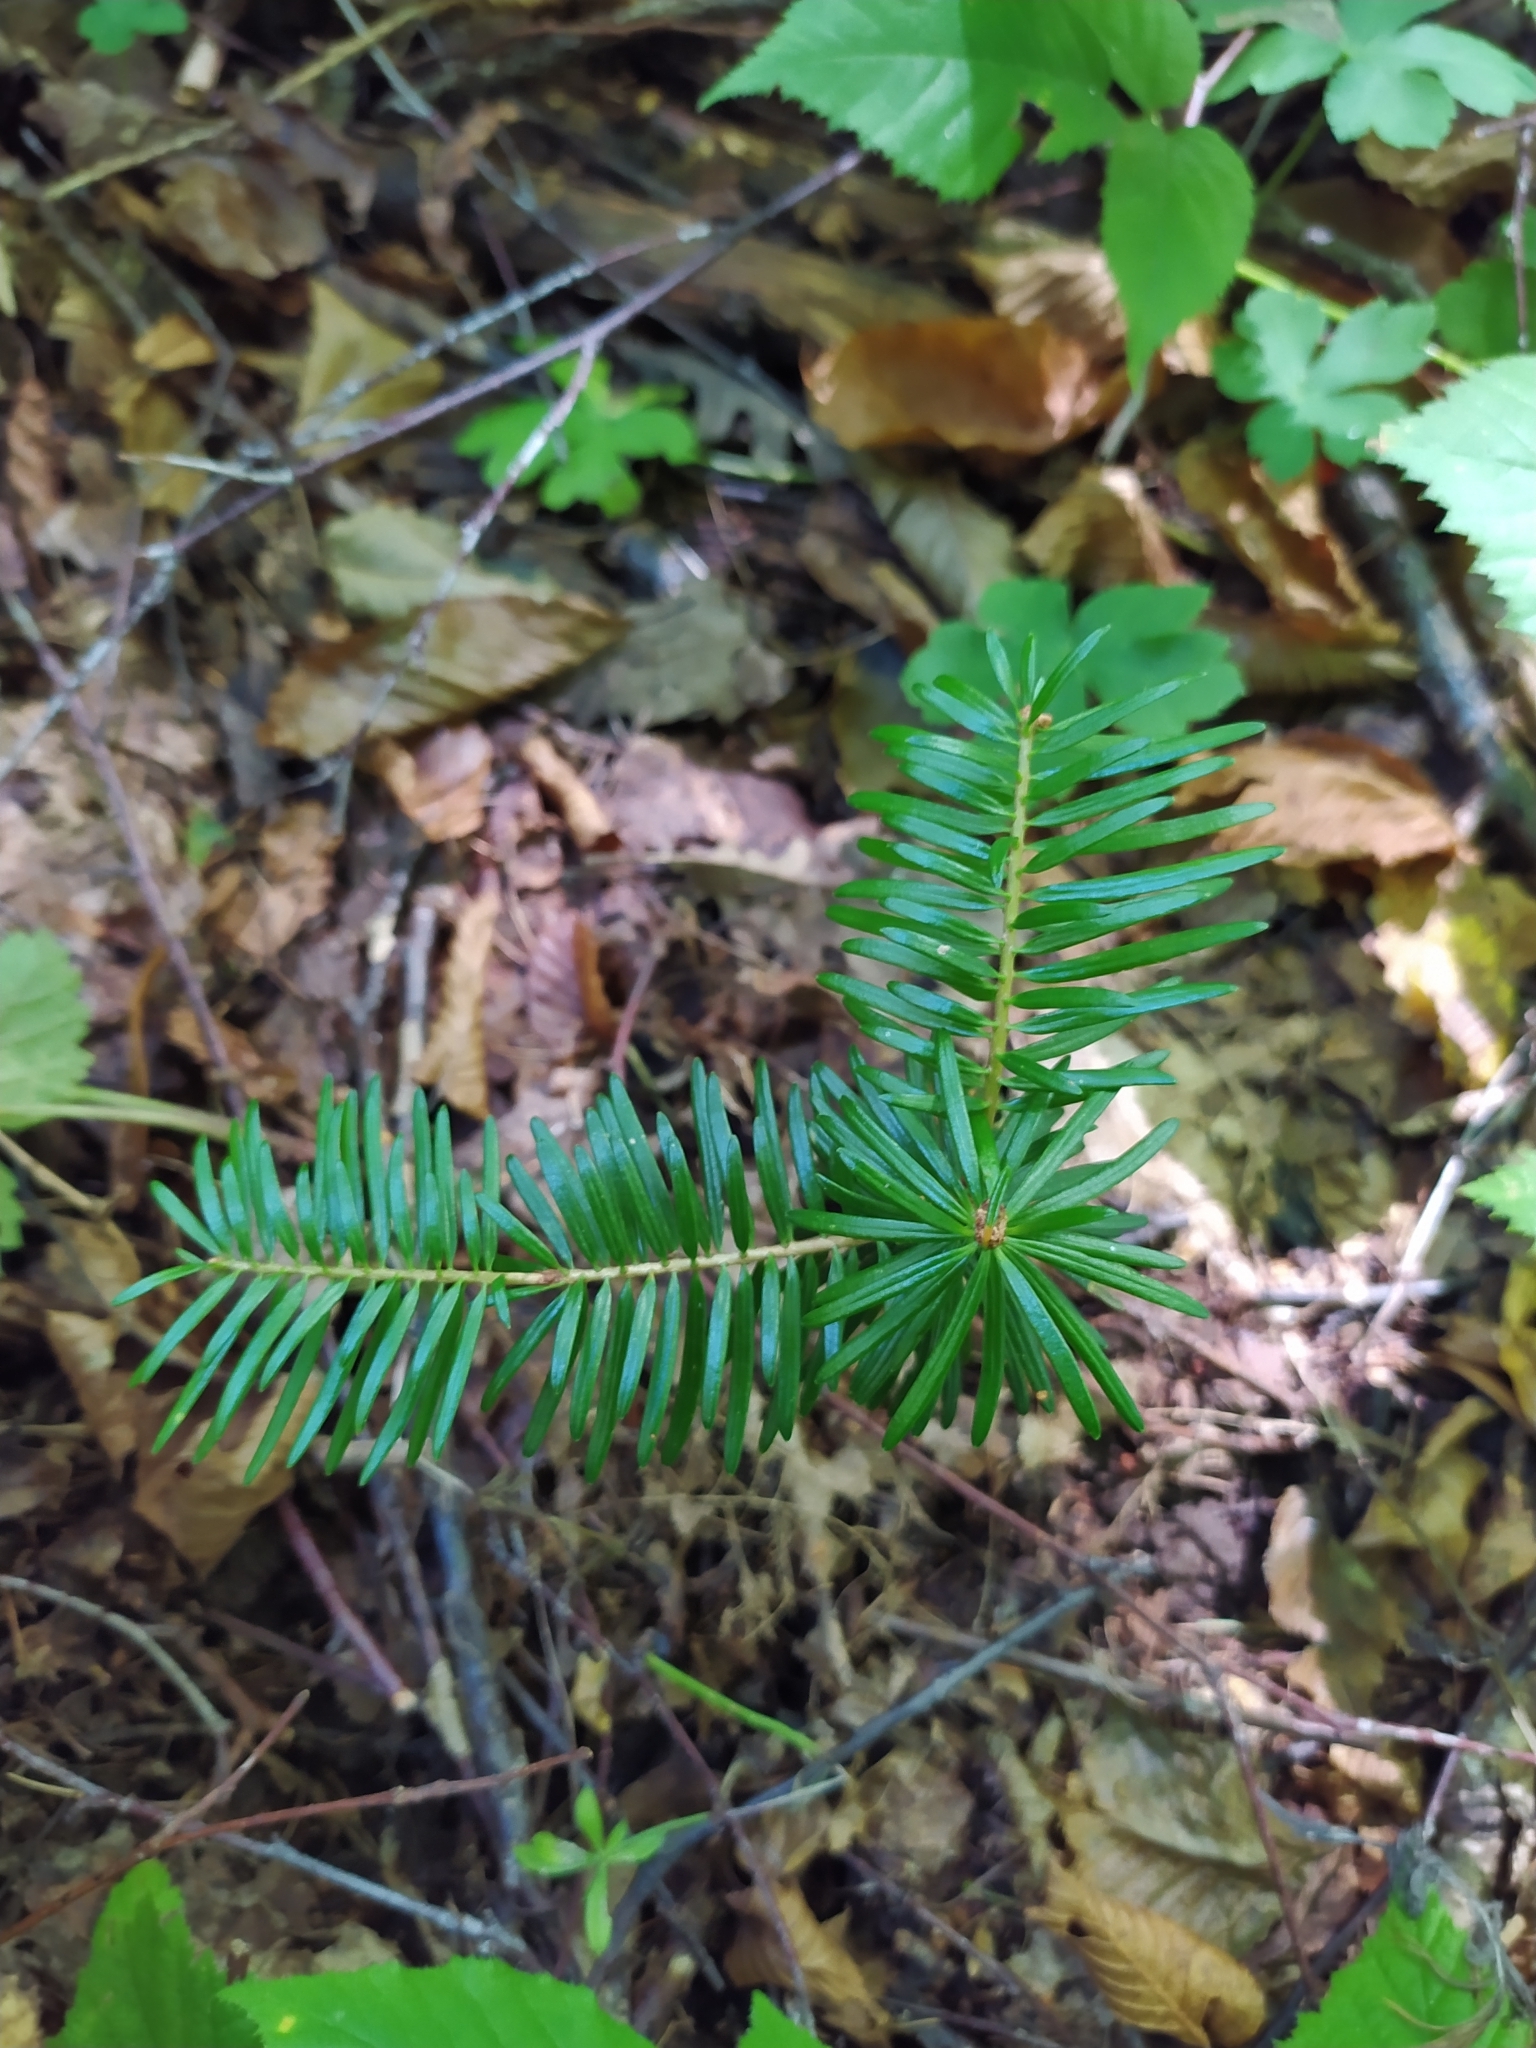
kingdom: Plantae
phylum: Tracheophyta
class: Pinopsida
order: Pinales
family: Pinaceae
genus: Abies
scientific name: Abies alba
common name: Silver fir
